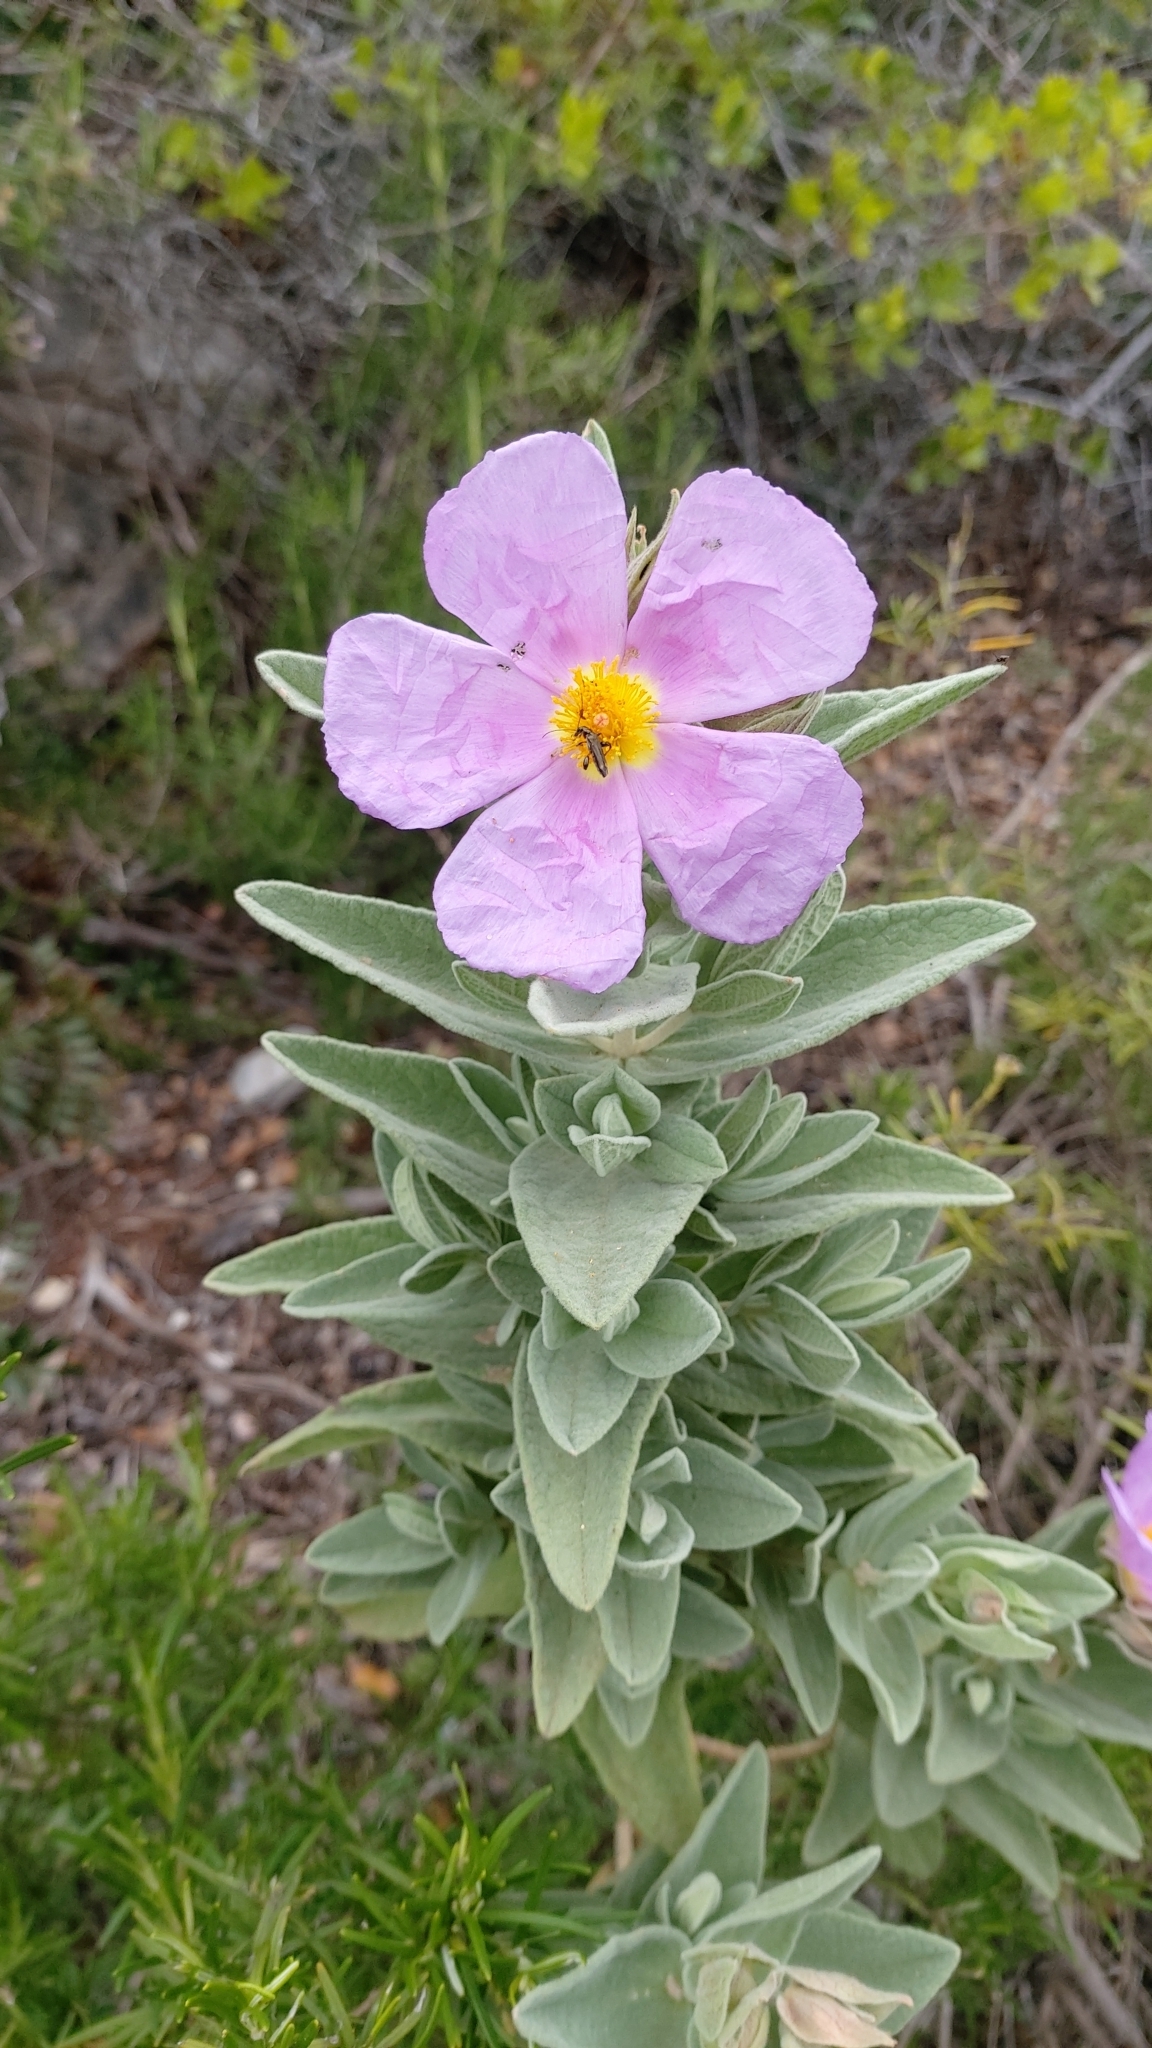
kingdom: Plantae
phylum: Tracheophyta
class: Magnoliopsida
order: Malvales
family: Cistaceae
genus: Cistus
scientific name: Cistus albidus
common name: White-leaf rock-rose
